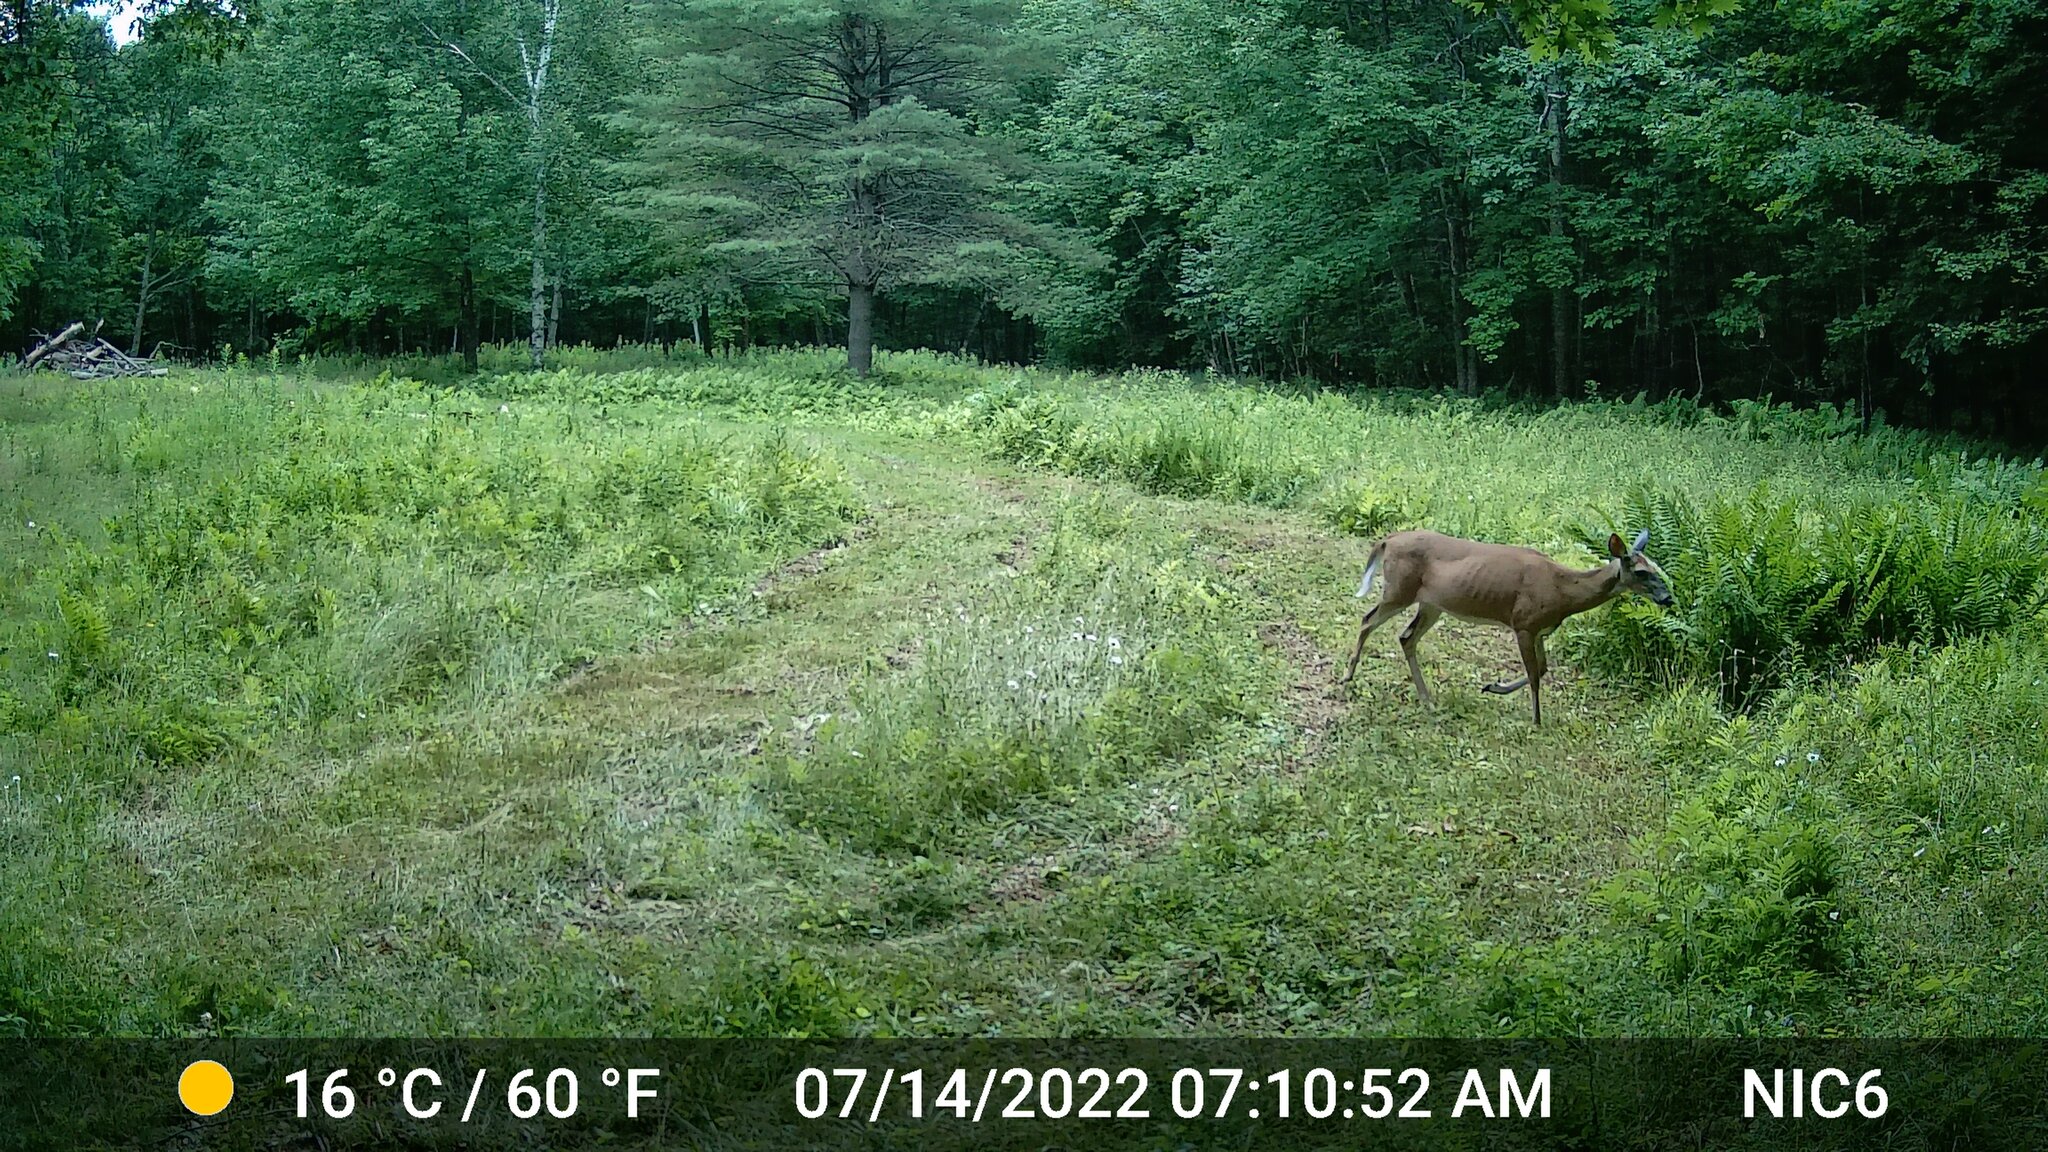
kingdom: Animalia
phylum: Chordata
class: Mammalia
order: Artiodactyla
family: Cervidae
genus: Odocoileus
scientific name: Odocoileus virginianus
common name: White-tailed deer
